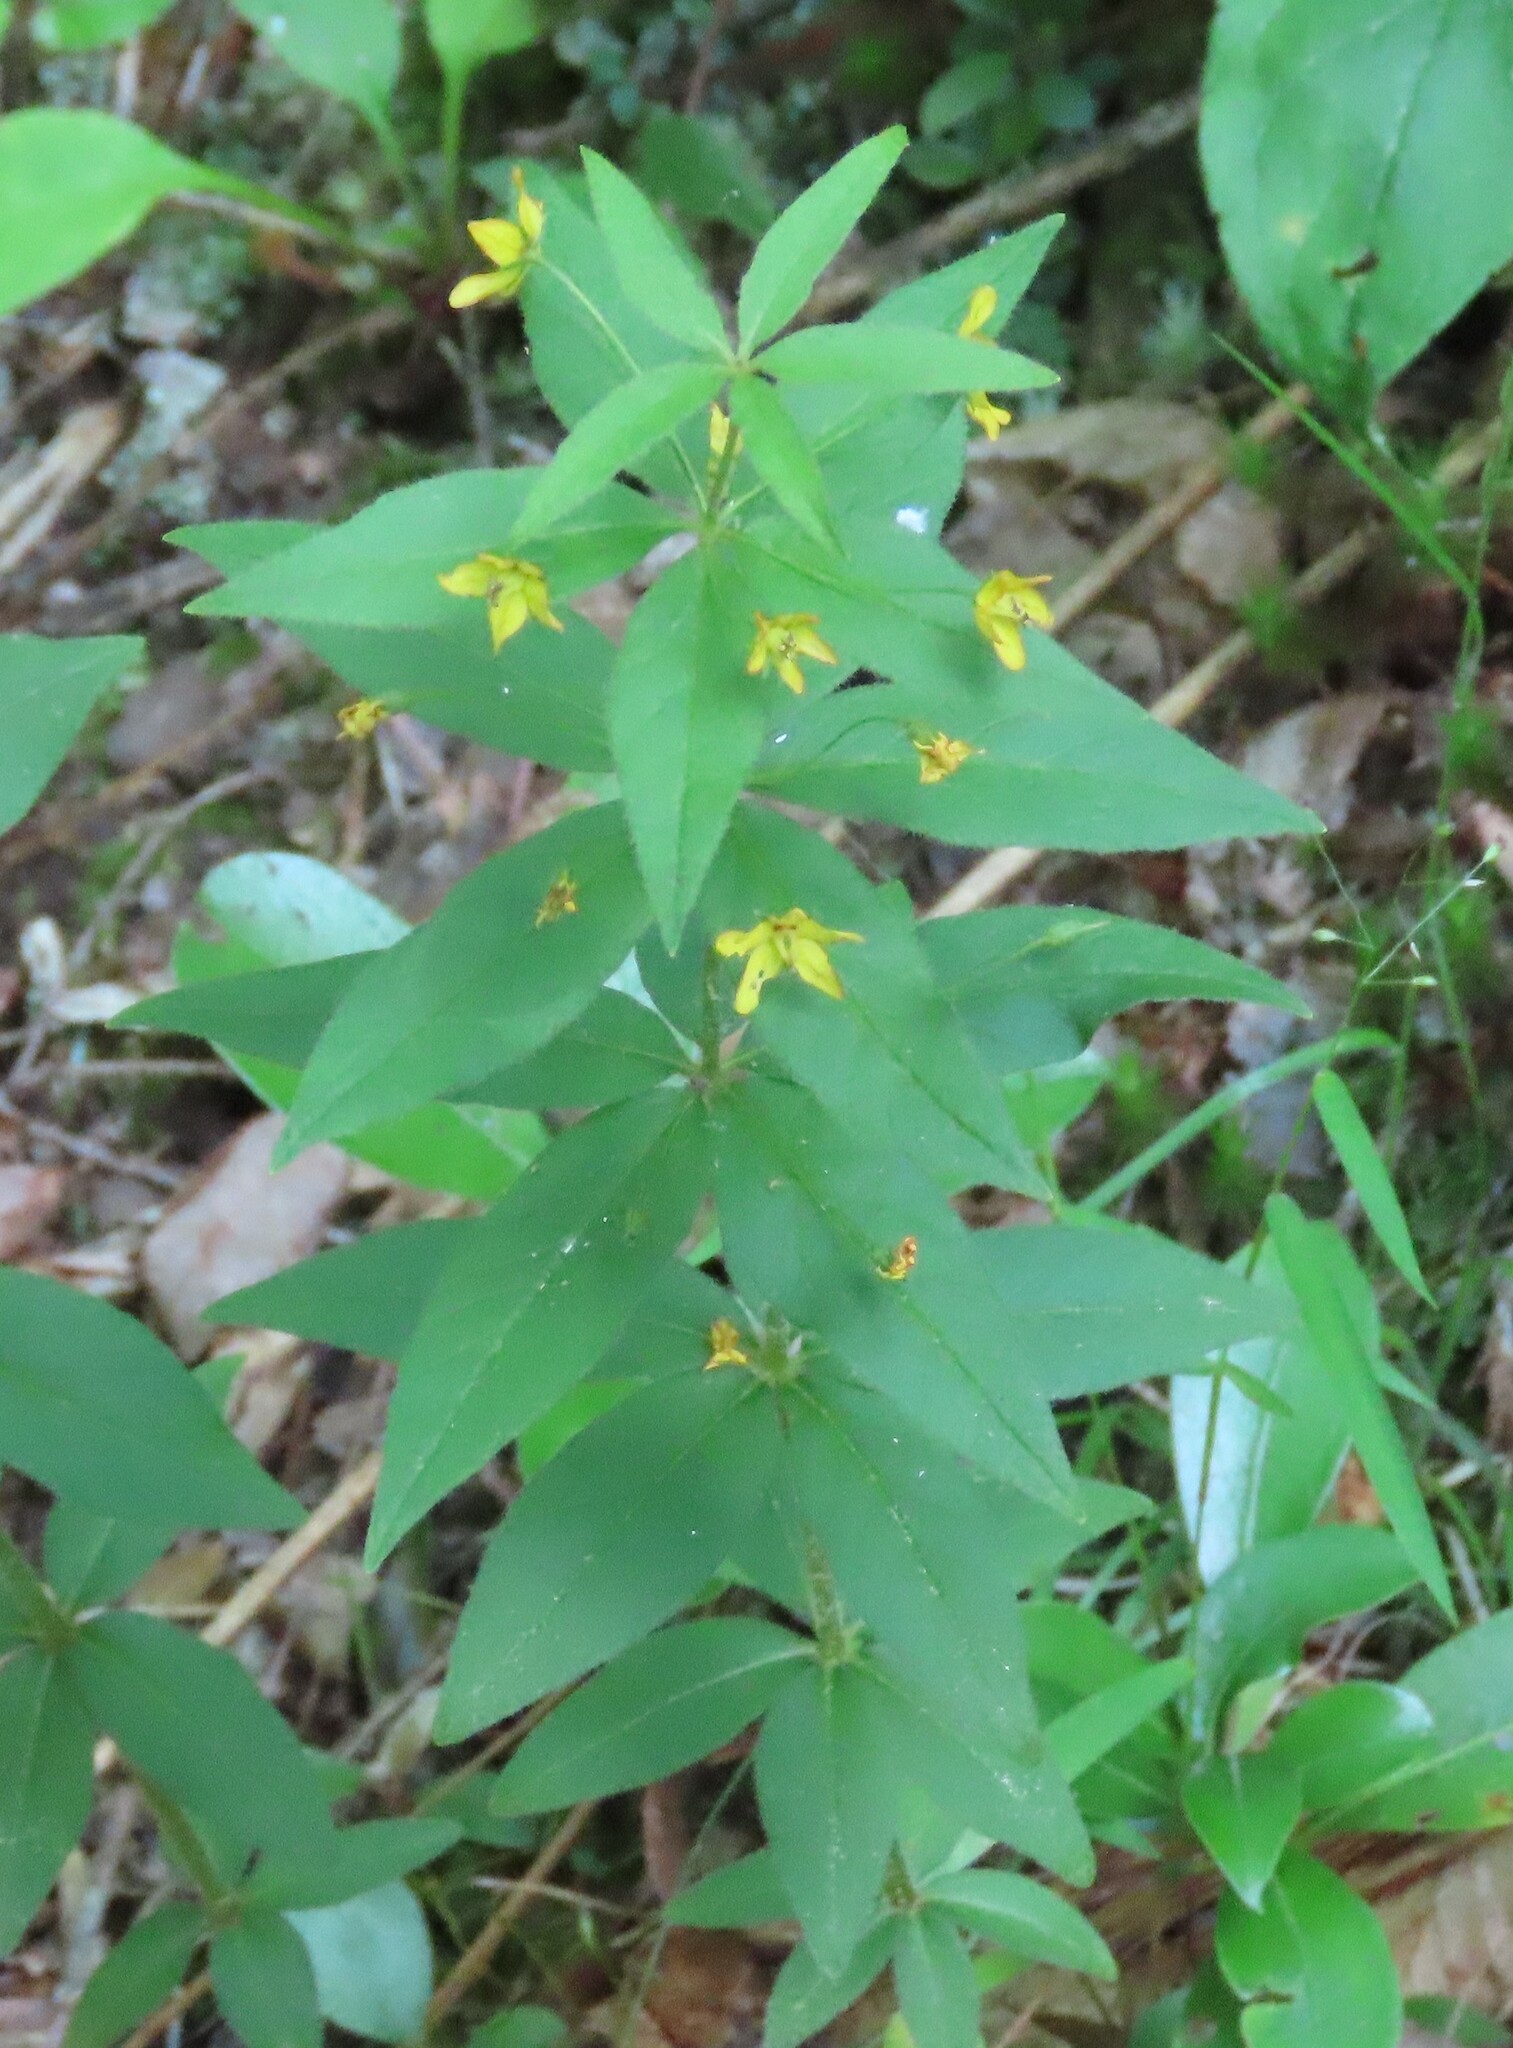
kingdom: Plantae
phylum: Tracheophyta
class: Magnoliopsida
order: Ericales
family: Primulaceae
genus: Lysimachia
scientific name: Lysimachia quadrifolia
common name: Whorled loosestrife
